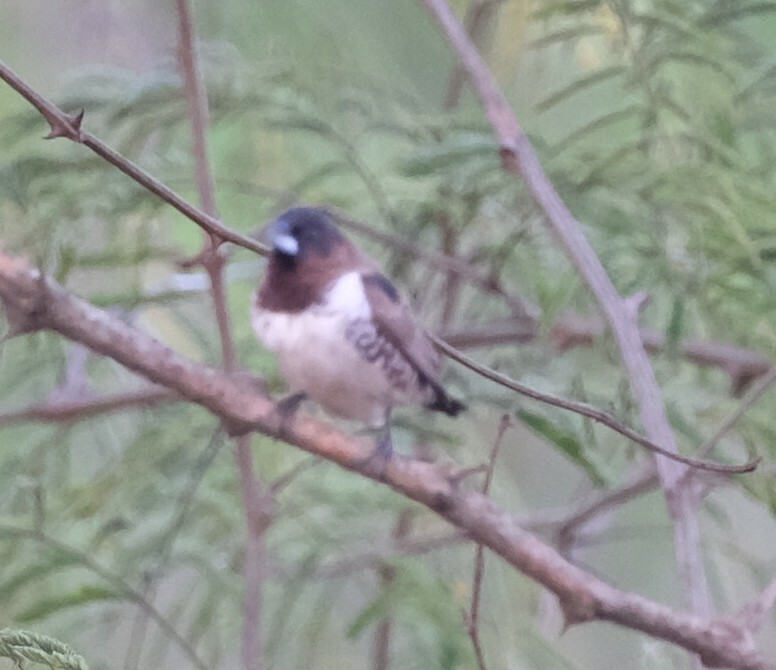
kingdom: Animalia
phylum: Chordata
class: Aves
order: Passeriformes
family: Estrildidae
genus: Lonchura
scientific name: Lonchura cucullata
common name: Bronze mannikin
